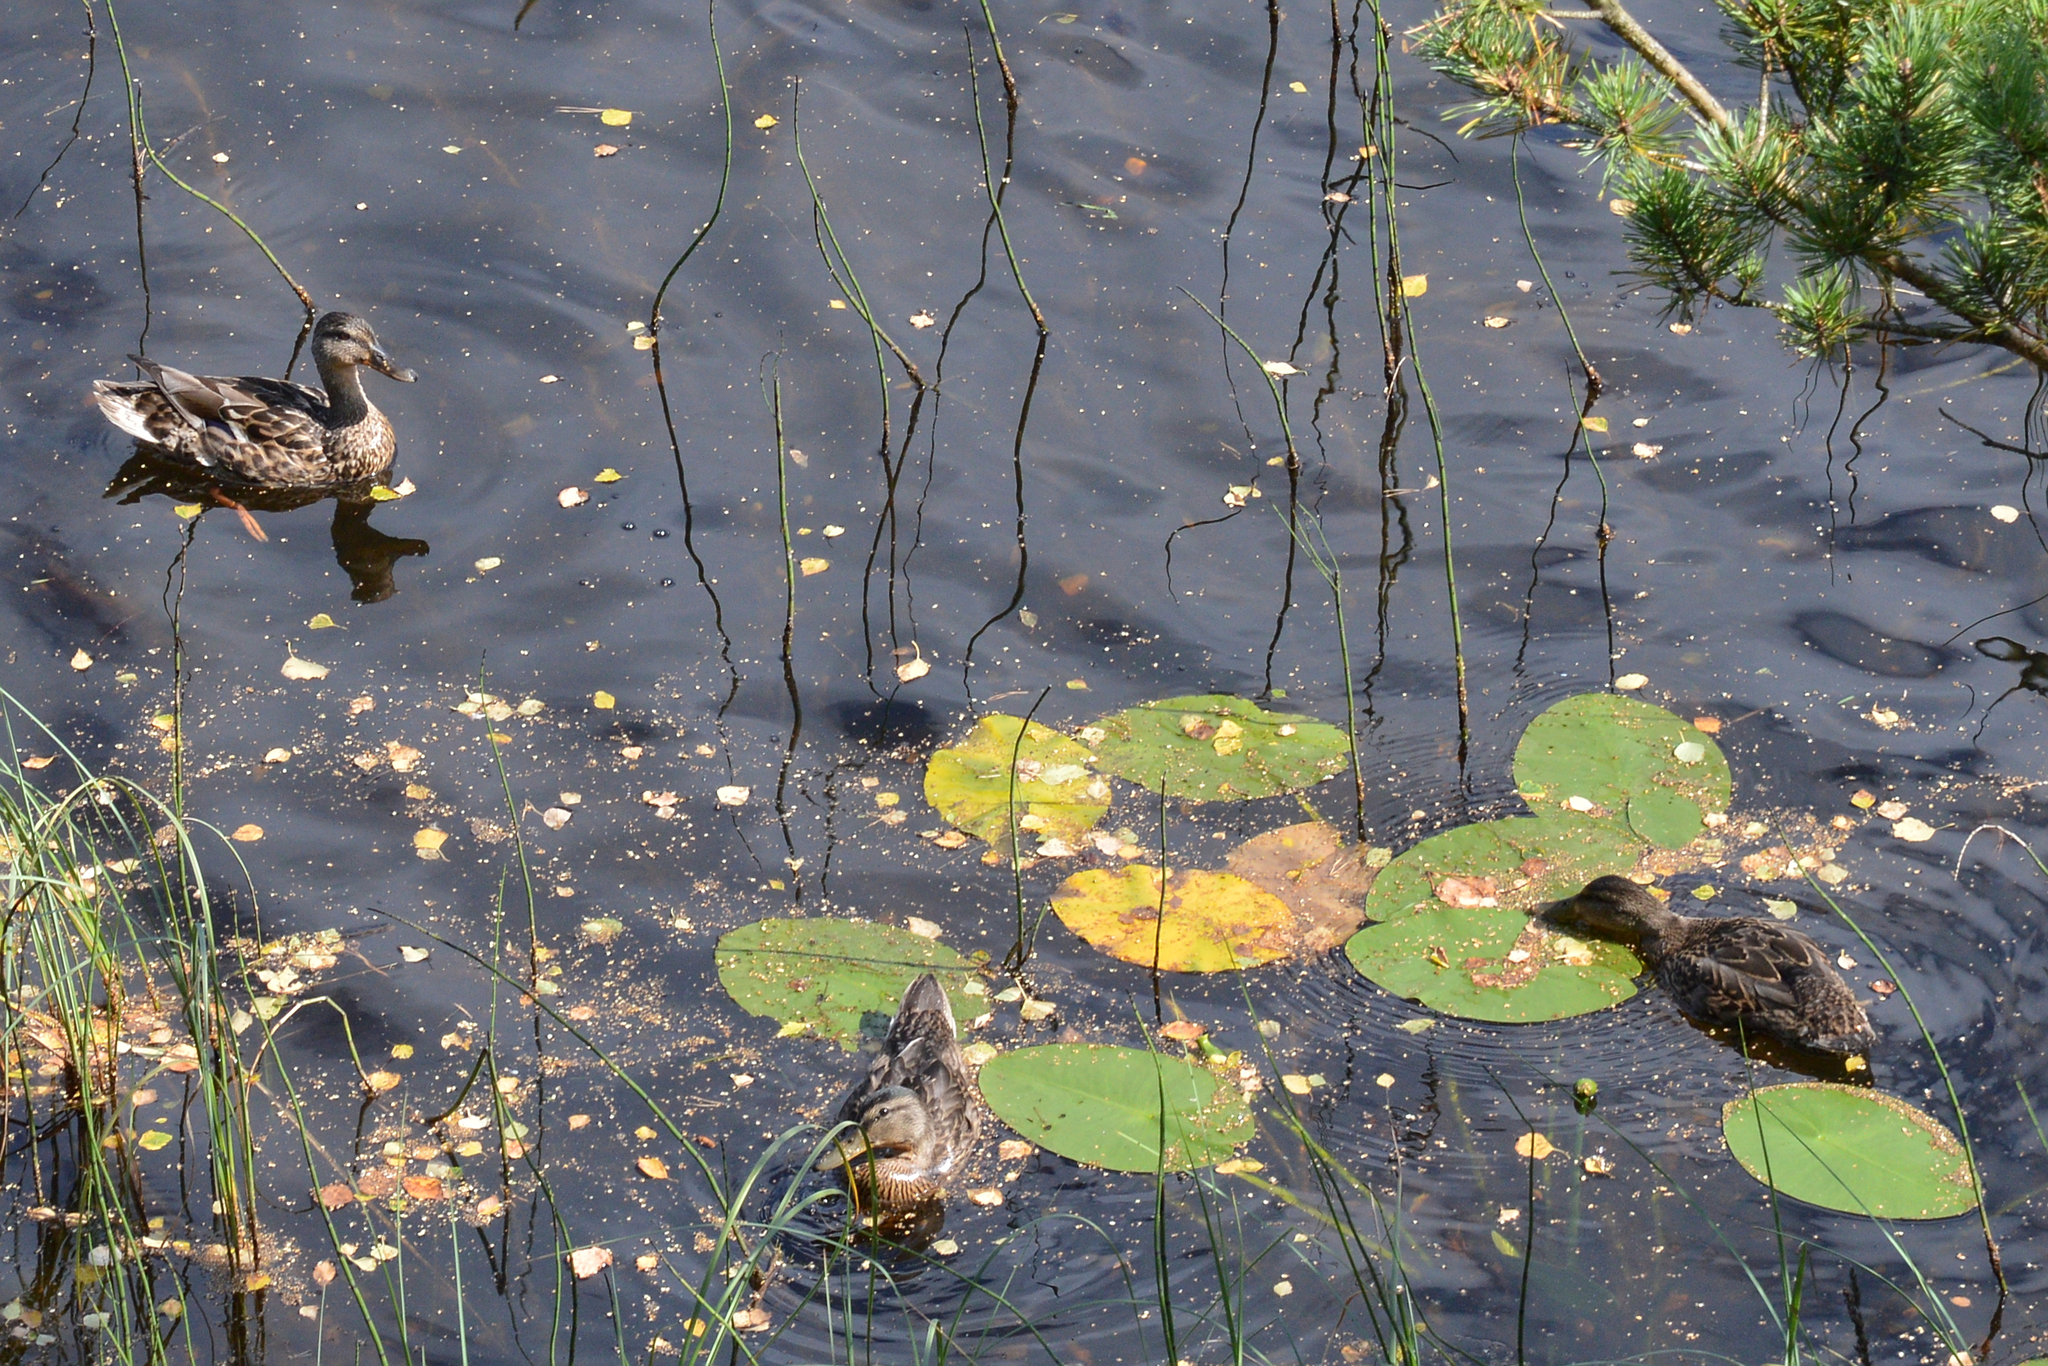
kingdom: Animalia
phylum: Chordata
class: Aves
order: Anseriformes
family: Anatidae
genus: Anas
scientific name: Anas platyrhynchos
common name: Mallard
